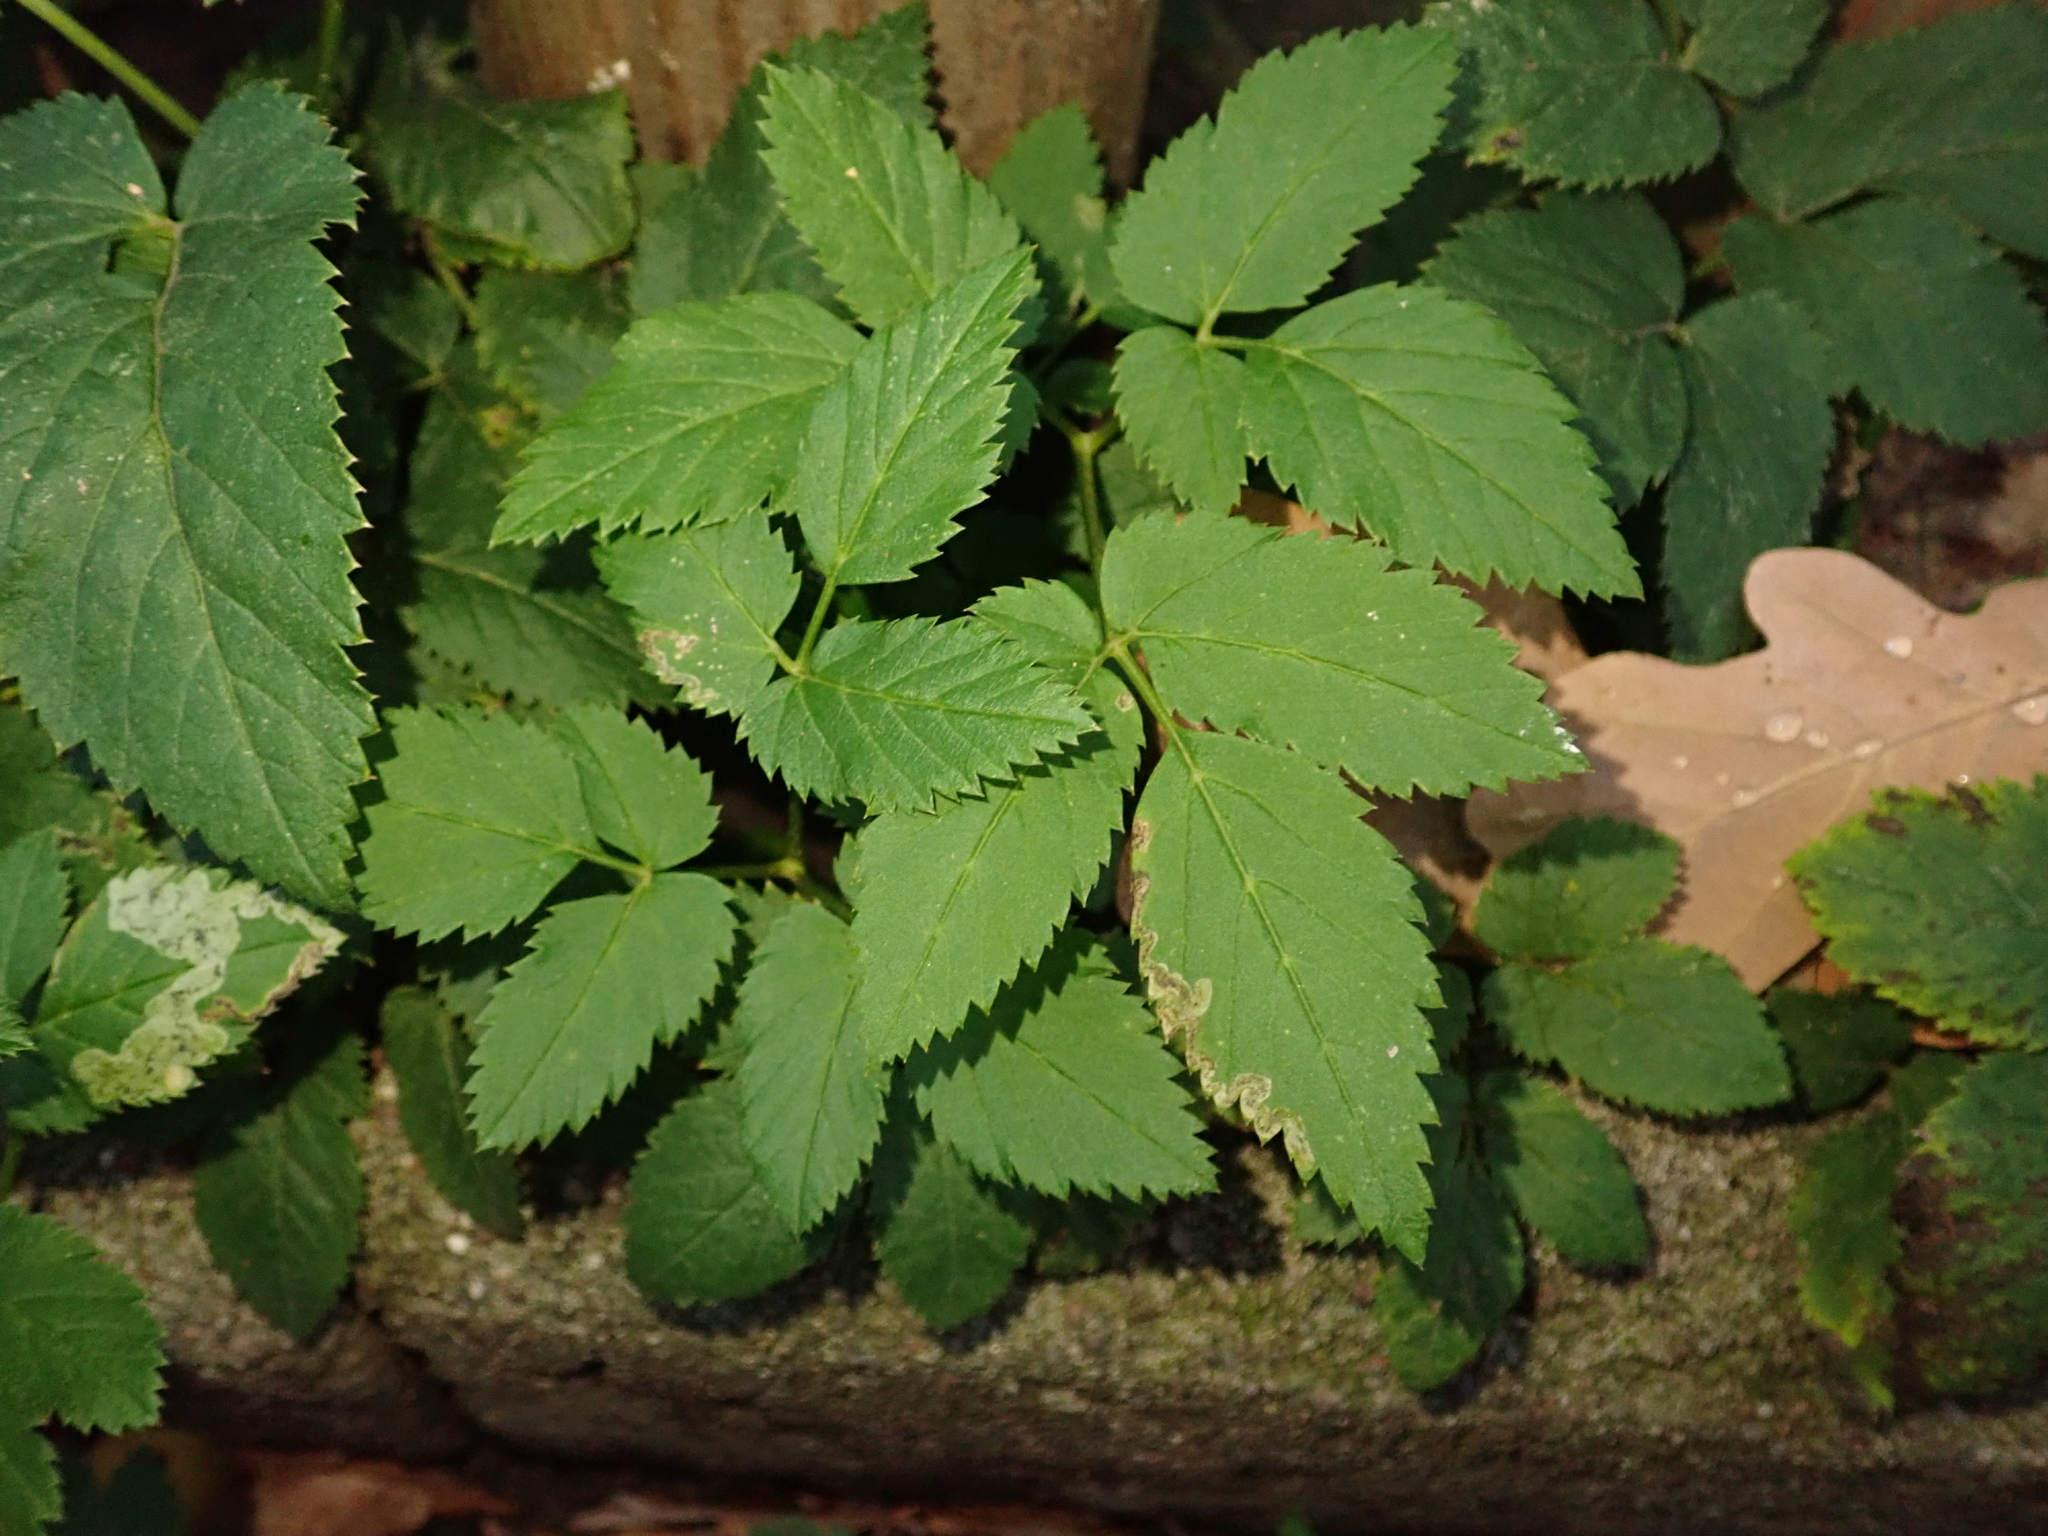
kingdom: Plantae
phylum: Tracheophyta
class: Magnoliopsida
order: Apiales
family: Apiaceae
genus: Aegopodium
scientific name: Aegopodium podagraria
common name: Ground-elder
